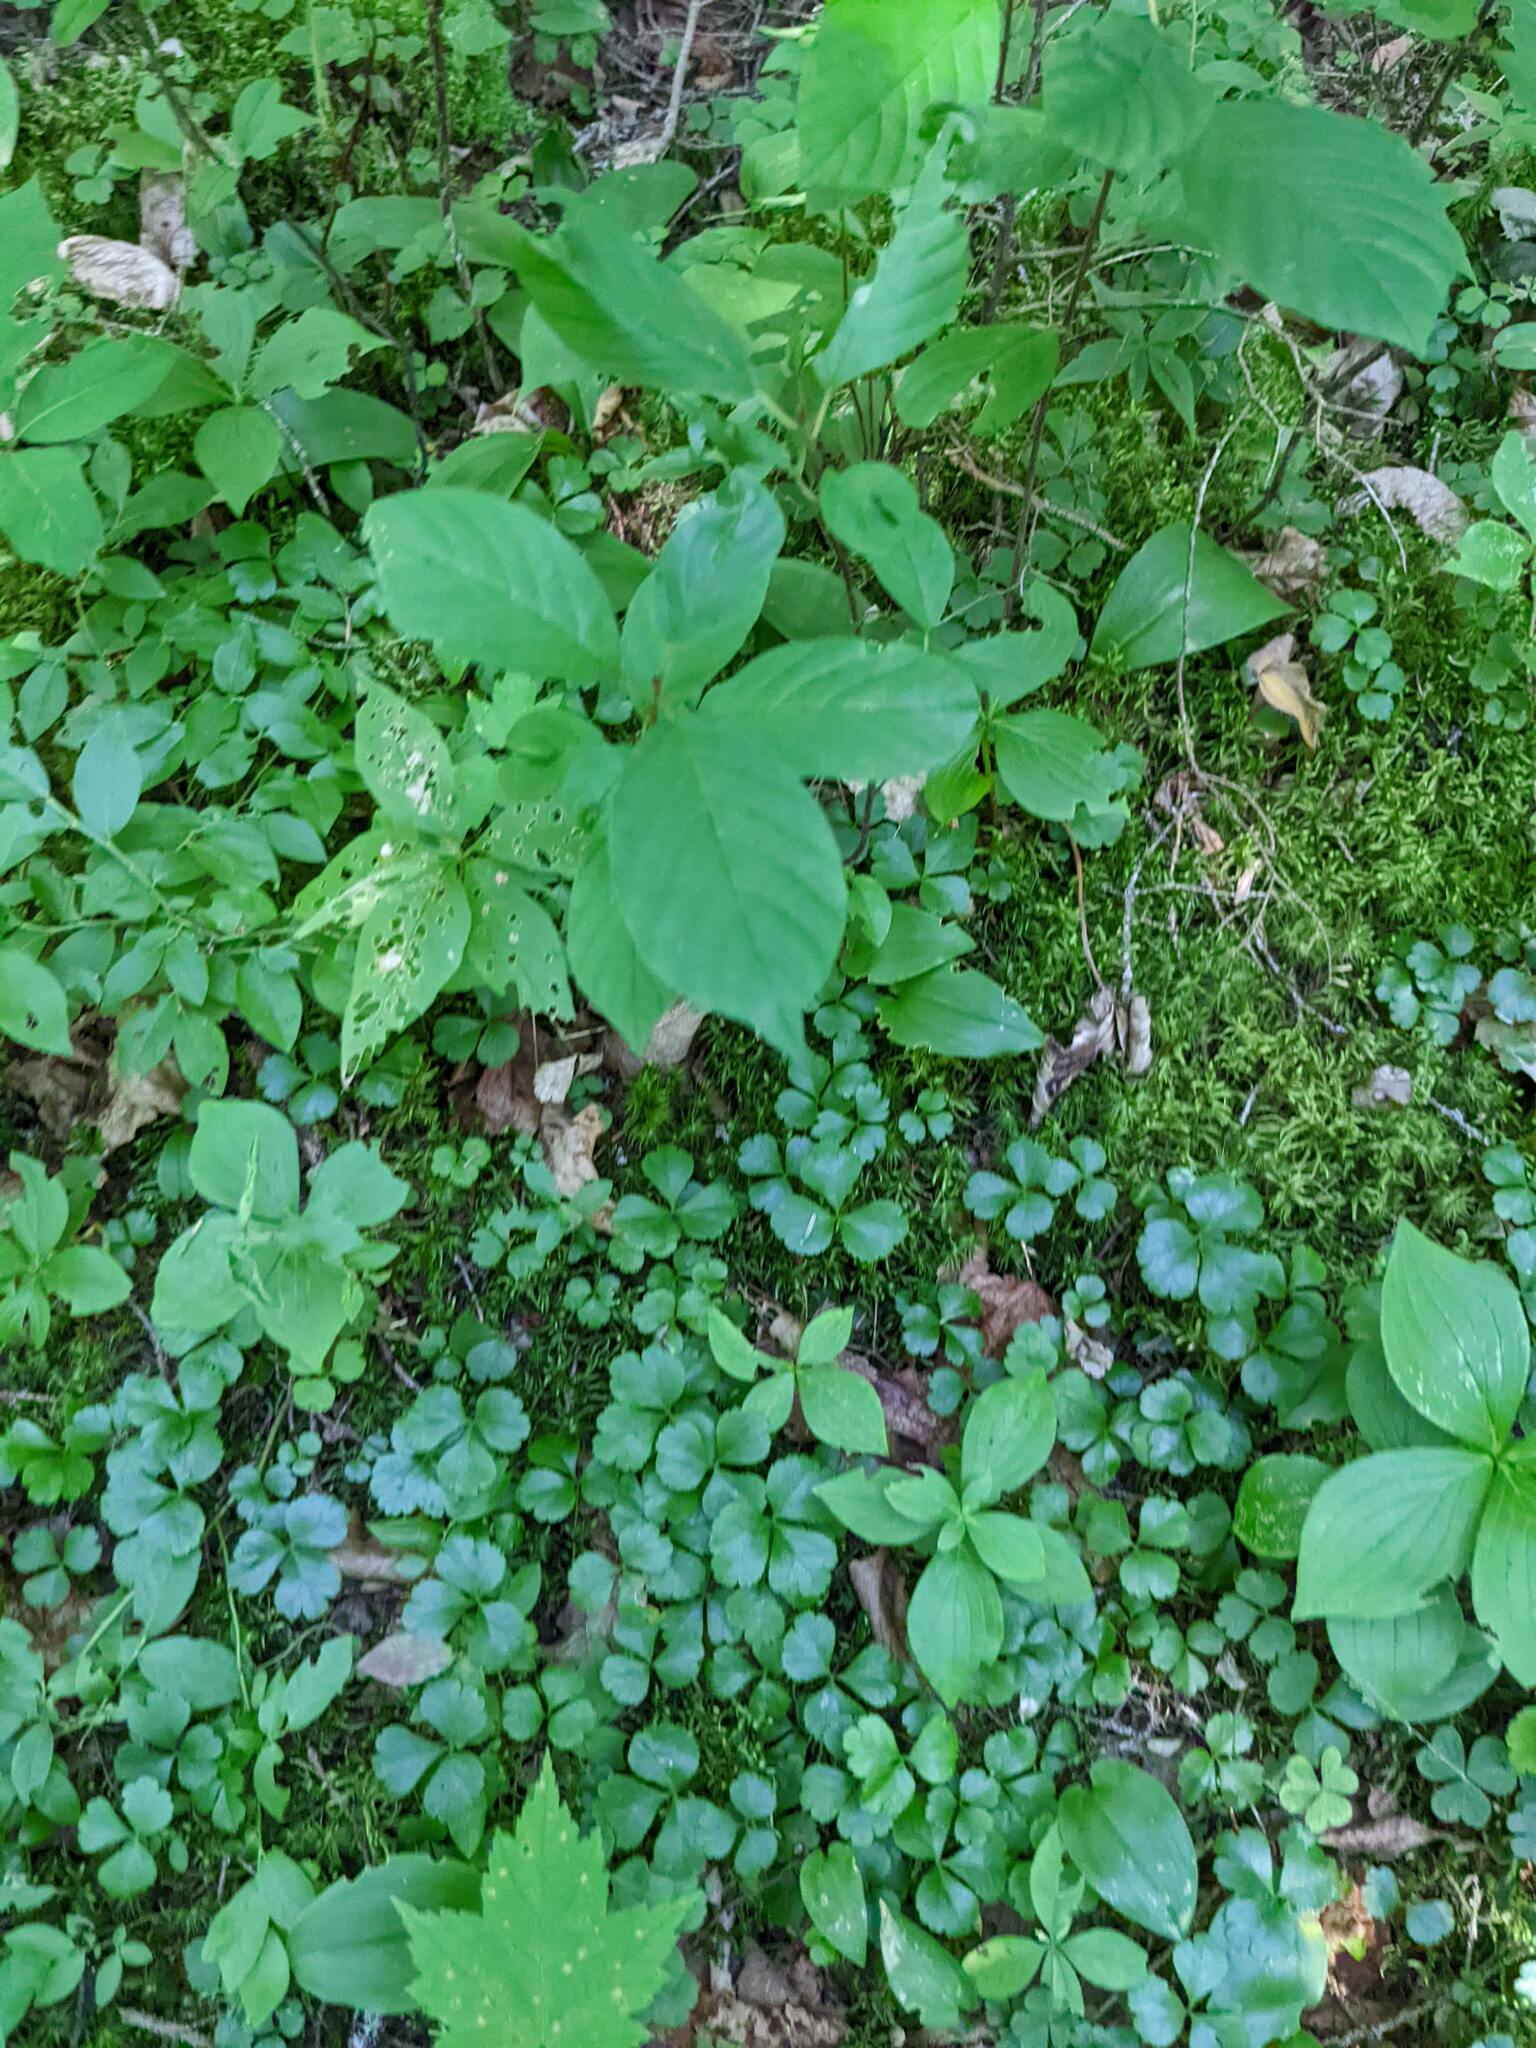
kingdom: Plantae
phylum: Tracheophyta
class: Magnoliopsida
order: Ranunculales
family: Ranunculaceae
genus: Coptis
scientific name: Coptis trifolia
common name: Canker-root
